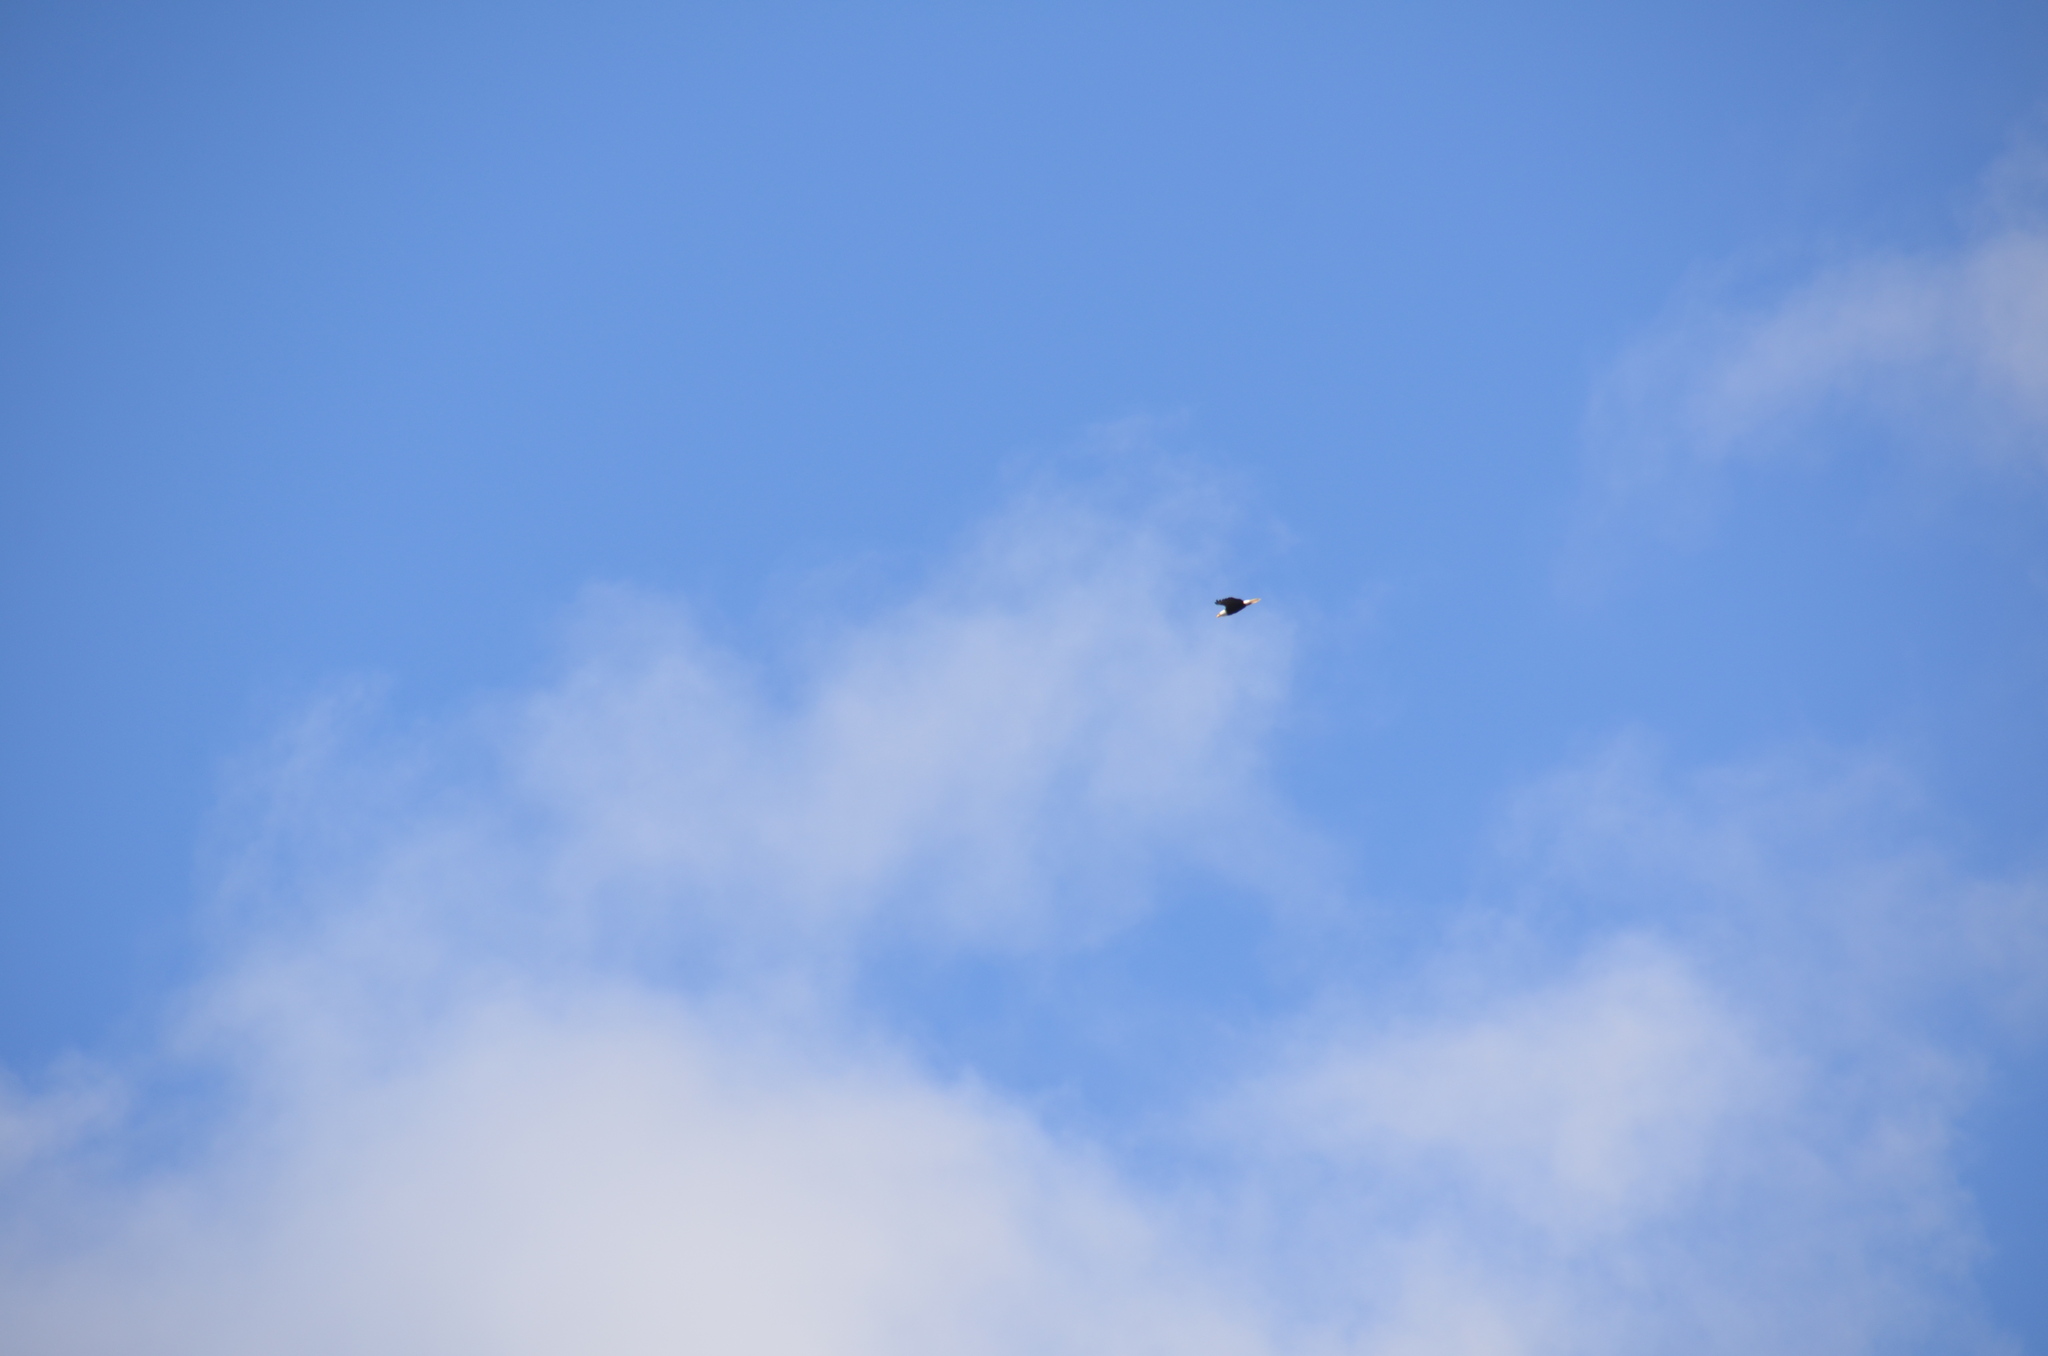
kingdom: Animalia
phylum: Chordata
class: Aves
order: Accipitriformes
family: Accipitridae
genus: Haliaeetus
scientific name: Haliaeetus leucocephalus
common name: Bald eagle
